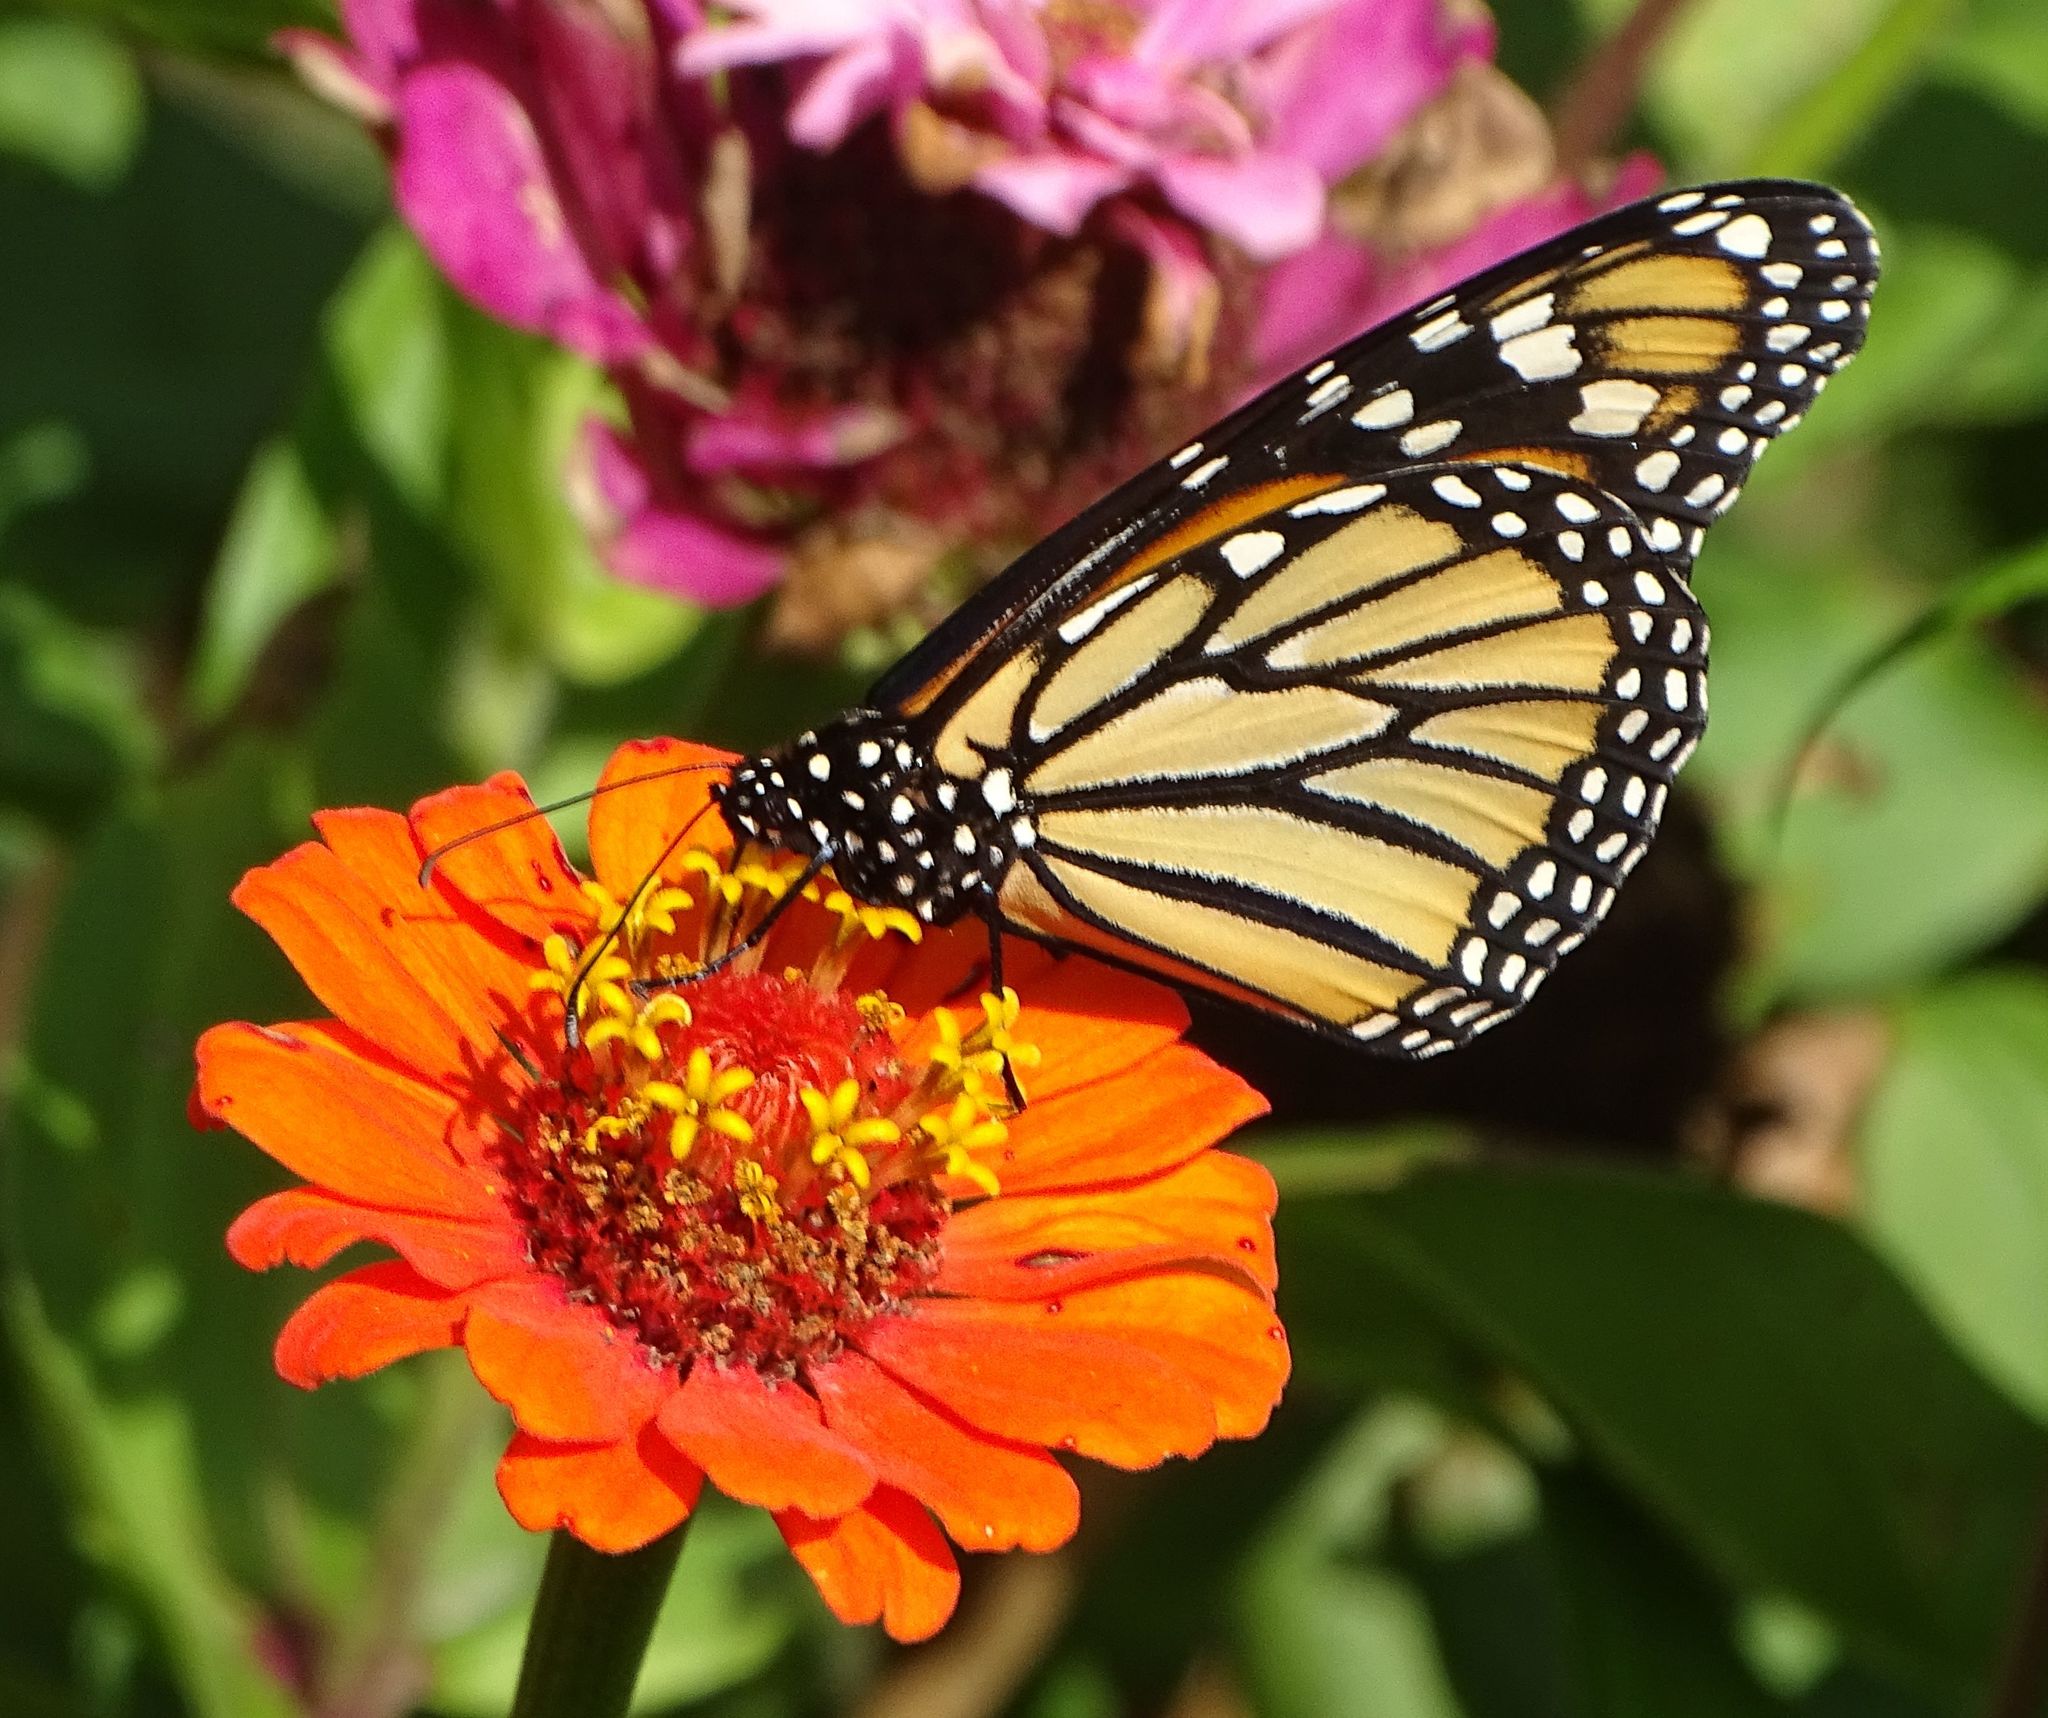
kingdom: Animalia
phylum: Arthropoda
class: Insecta
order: Lepidoptera
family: Nymphalidae
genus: Danaus
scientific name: Danaus plexippus
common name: Monarch
